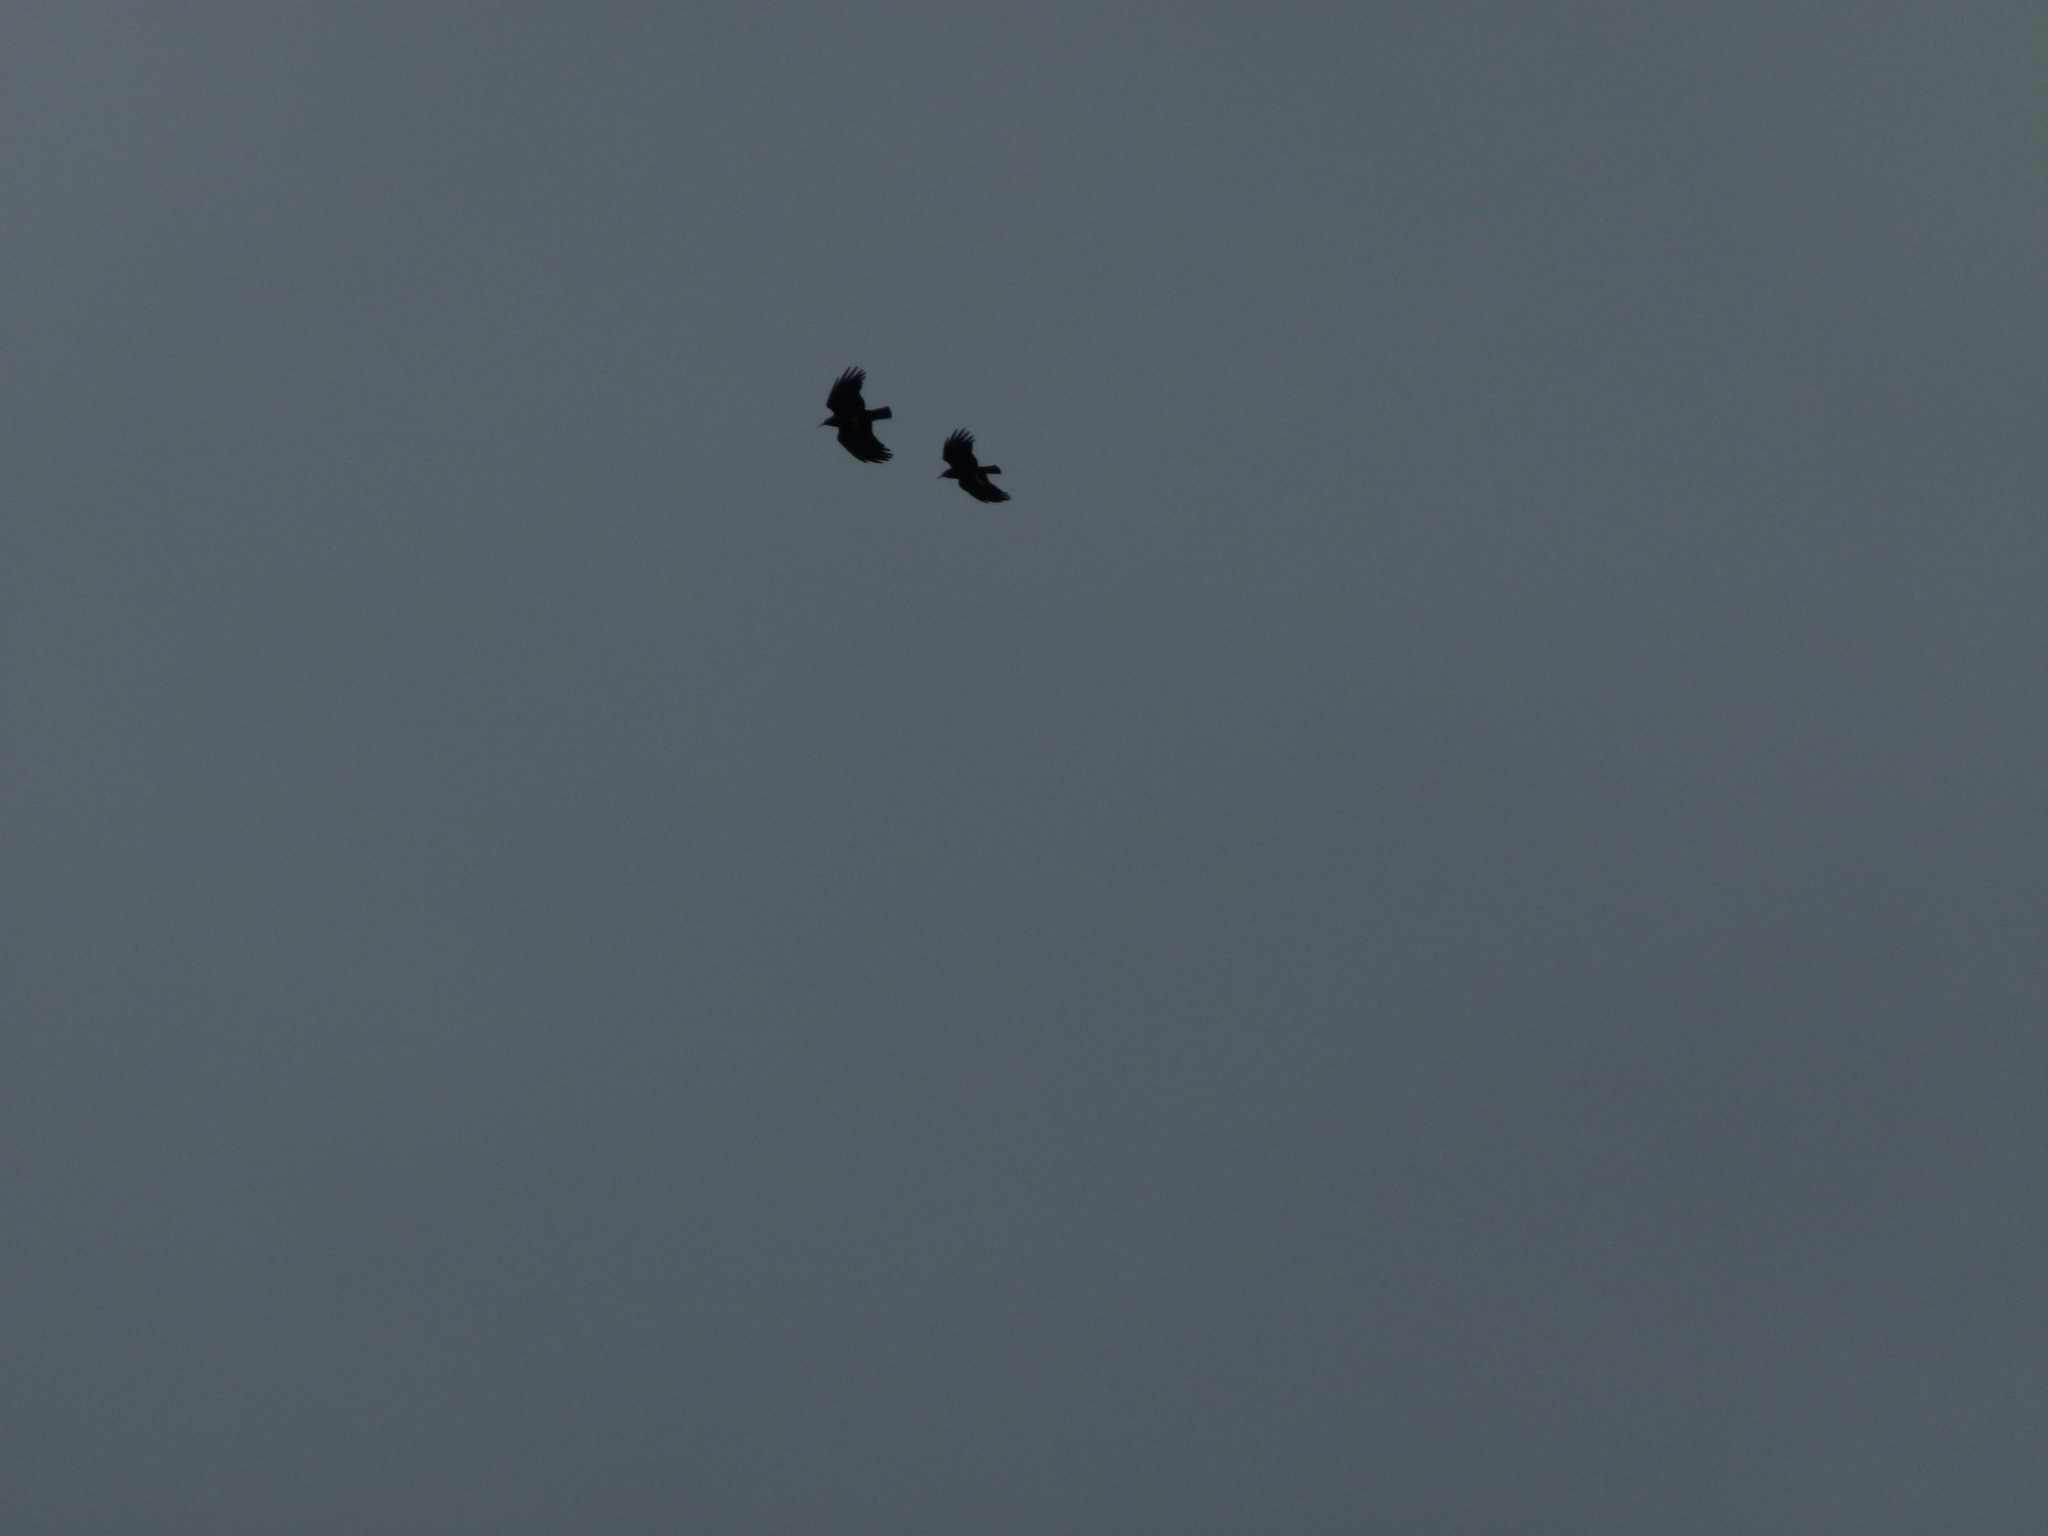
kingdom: Animalia
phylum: Chordata
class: Aves
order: Passeriformes
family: Corvidae
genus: Pyrrhocorax
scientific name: Pyrrhocorax pyrrhocorax
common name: Red-billed chough
